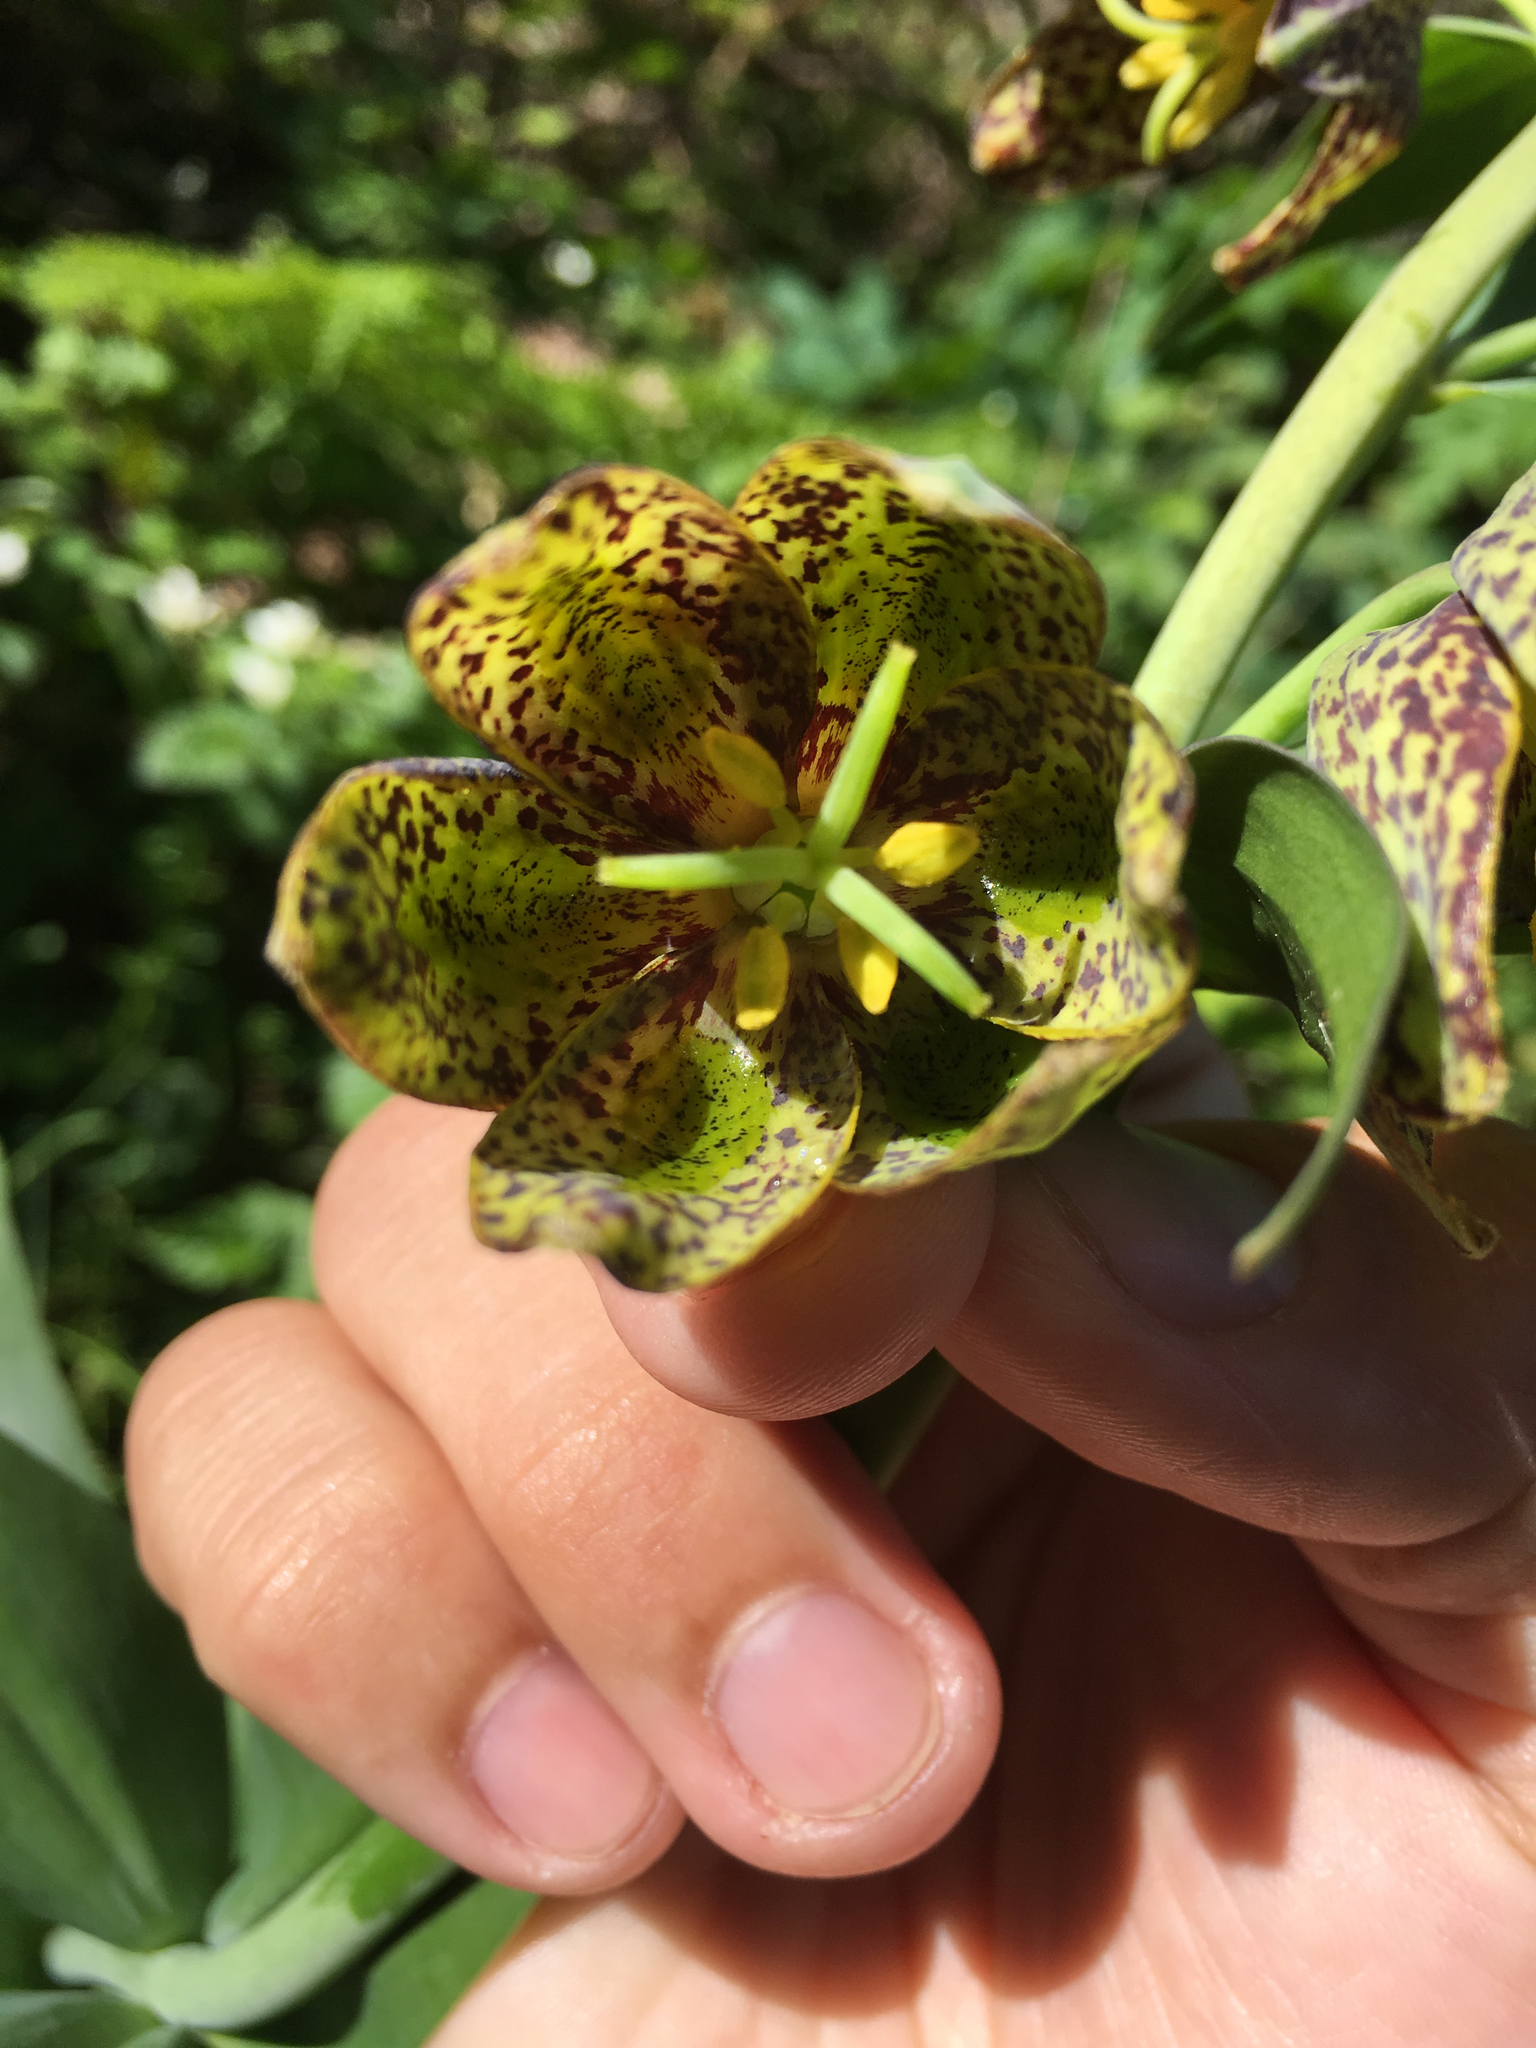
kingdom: Plantae
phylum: Tracheophyta
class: Liliopsida
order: Liliales
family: Liliaceae
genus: Fritillaria
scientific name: Fritillaria affinis
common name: Ojai fritillary
